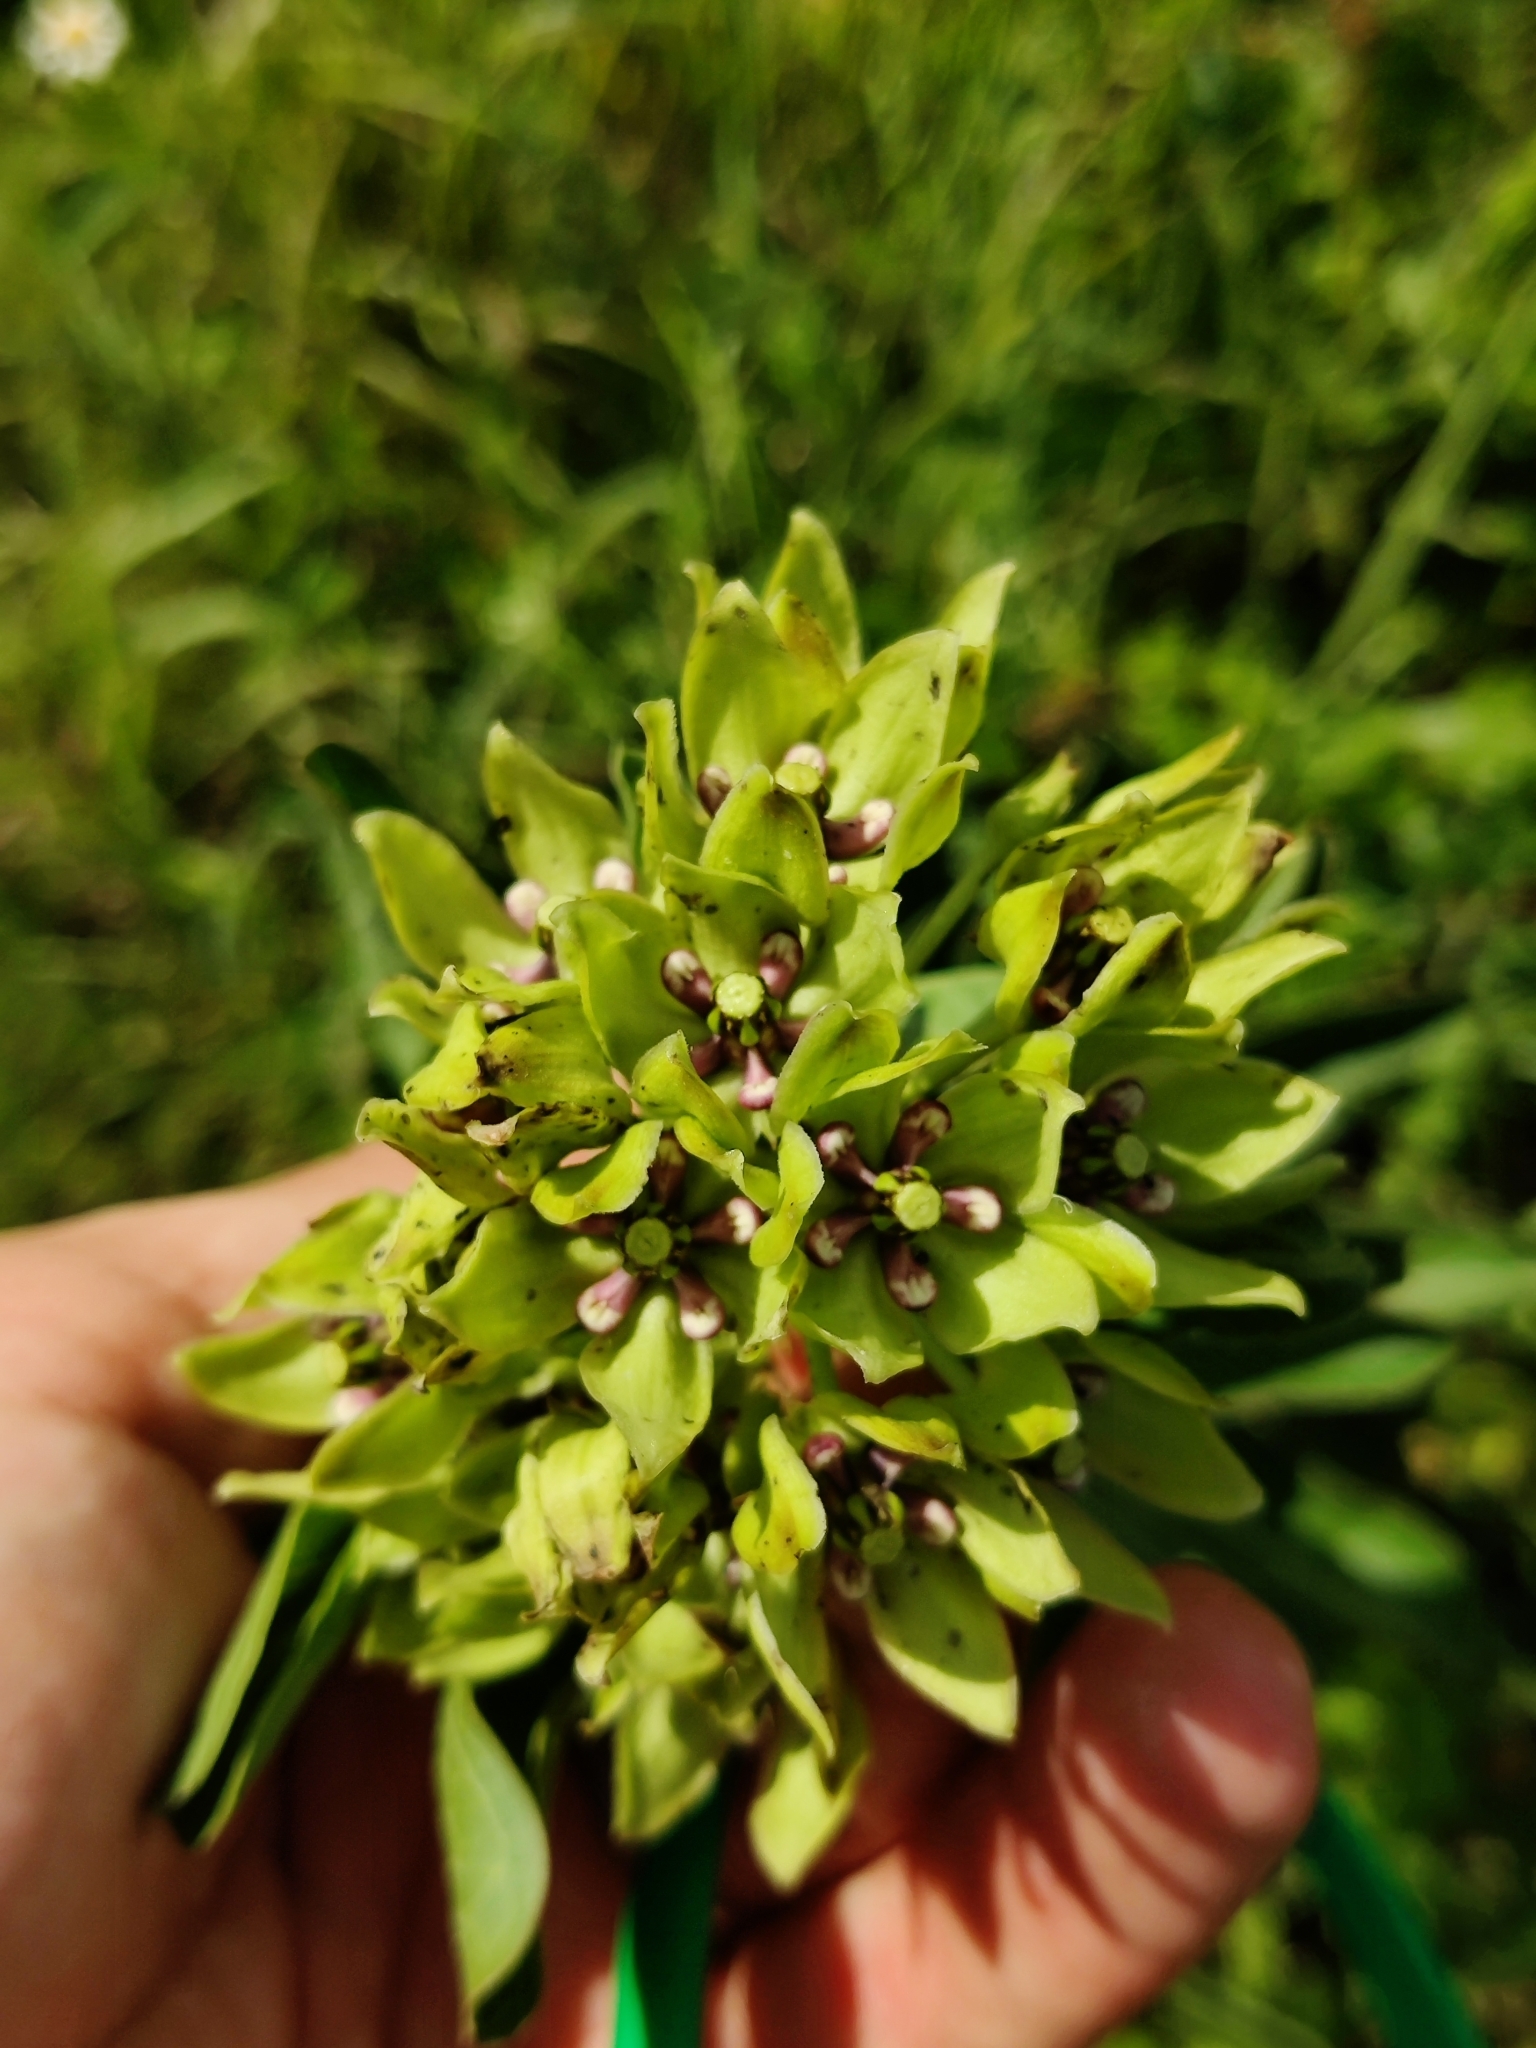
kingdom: Plantae
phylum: Tracheophyta
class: Magnoliopsida
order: Gentianales
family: Apocynaceae
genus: Asclepias
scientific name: Asclepias viridis
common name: Antelope-horns
